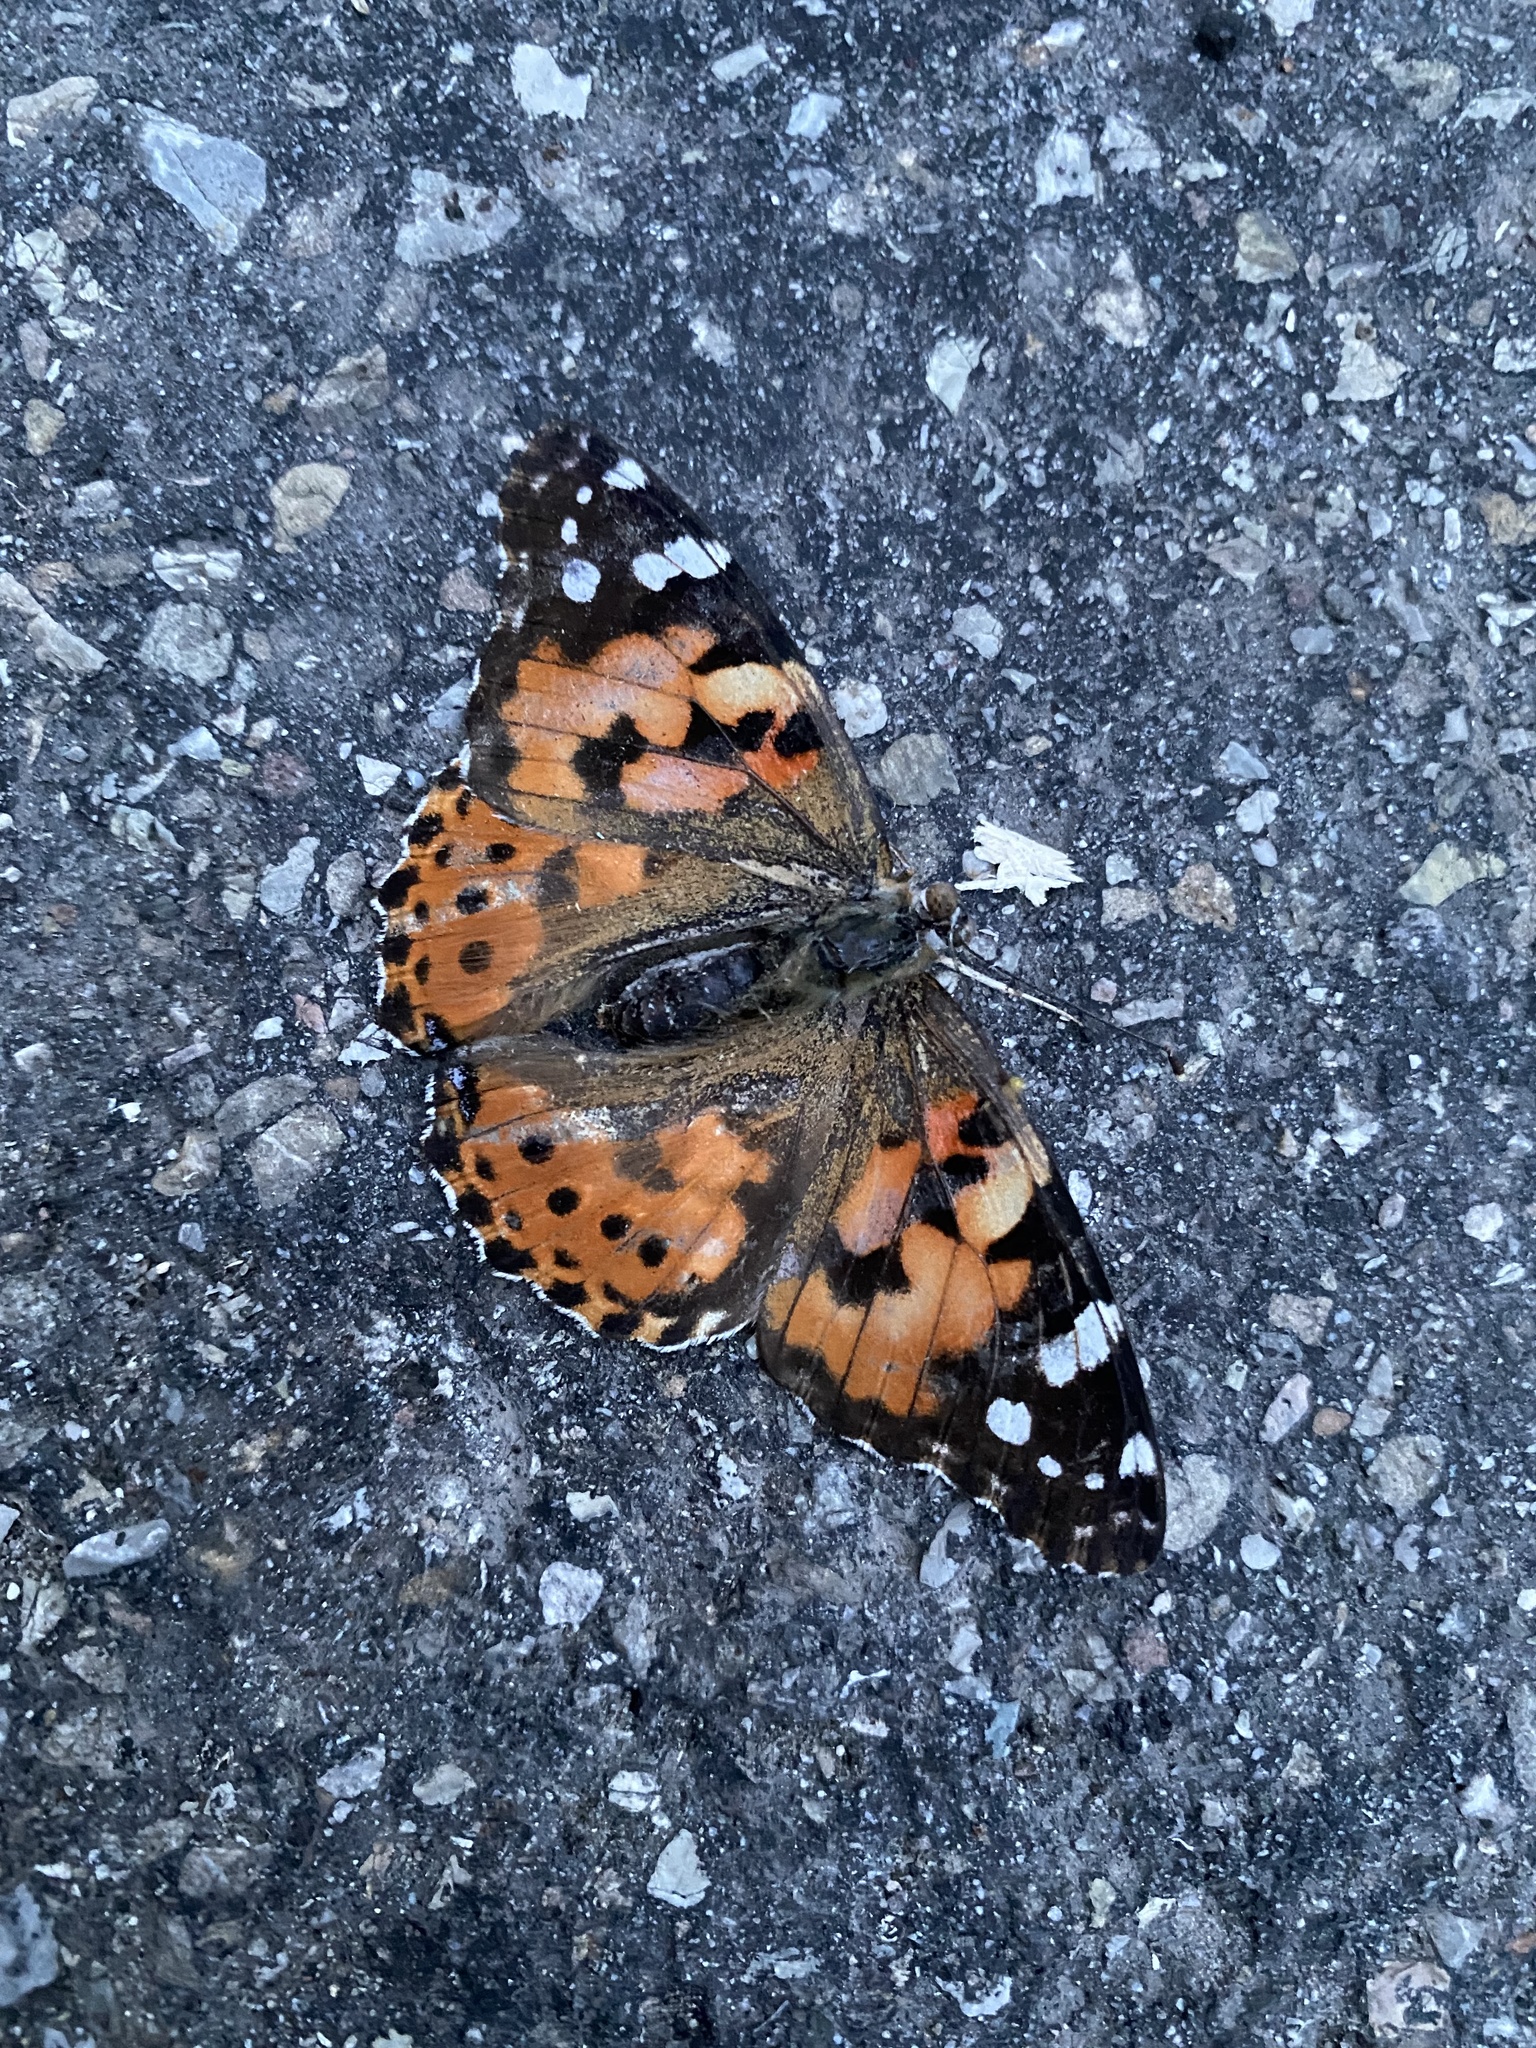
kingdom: Animalia
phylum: Arthropoda
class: Insecta
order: Lepidoptera
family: Nymphalidae
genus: Vanessa
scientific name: Vanessa cardui
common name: Painted lady
